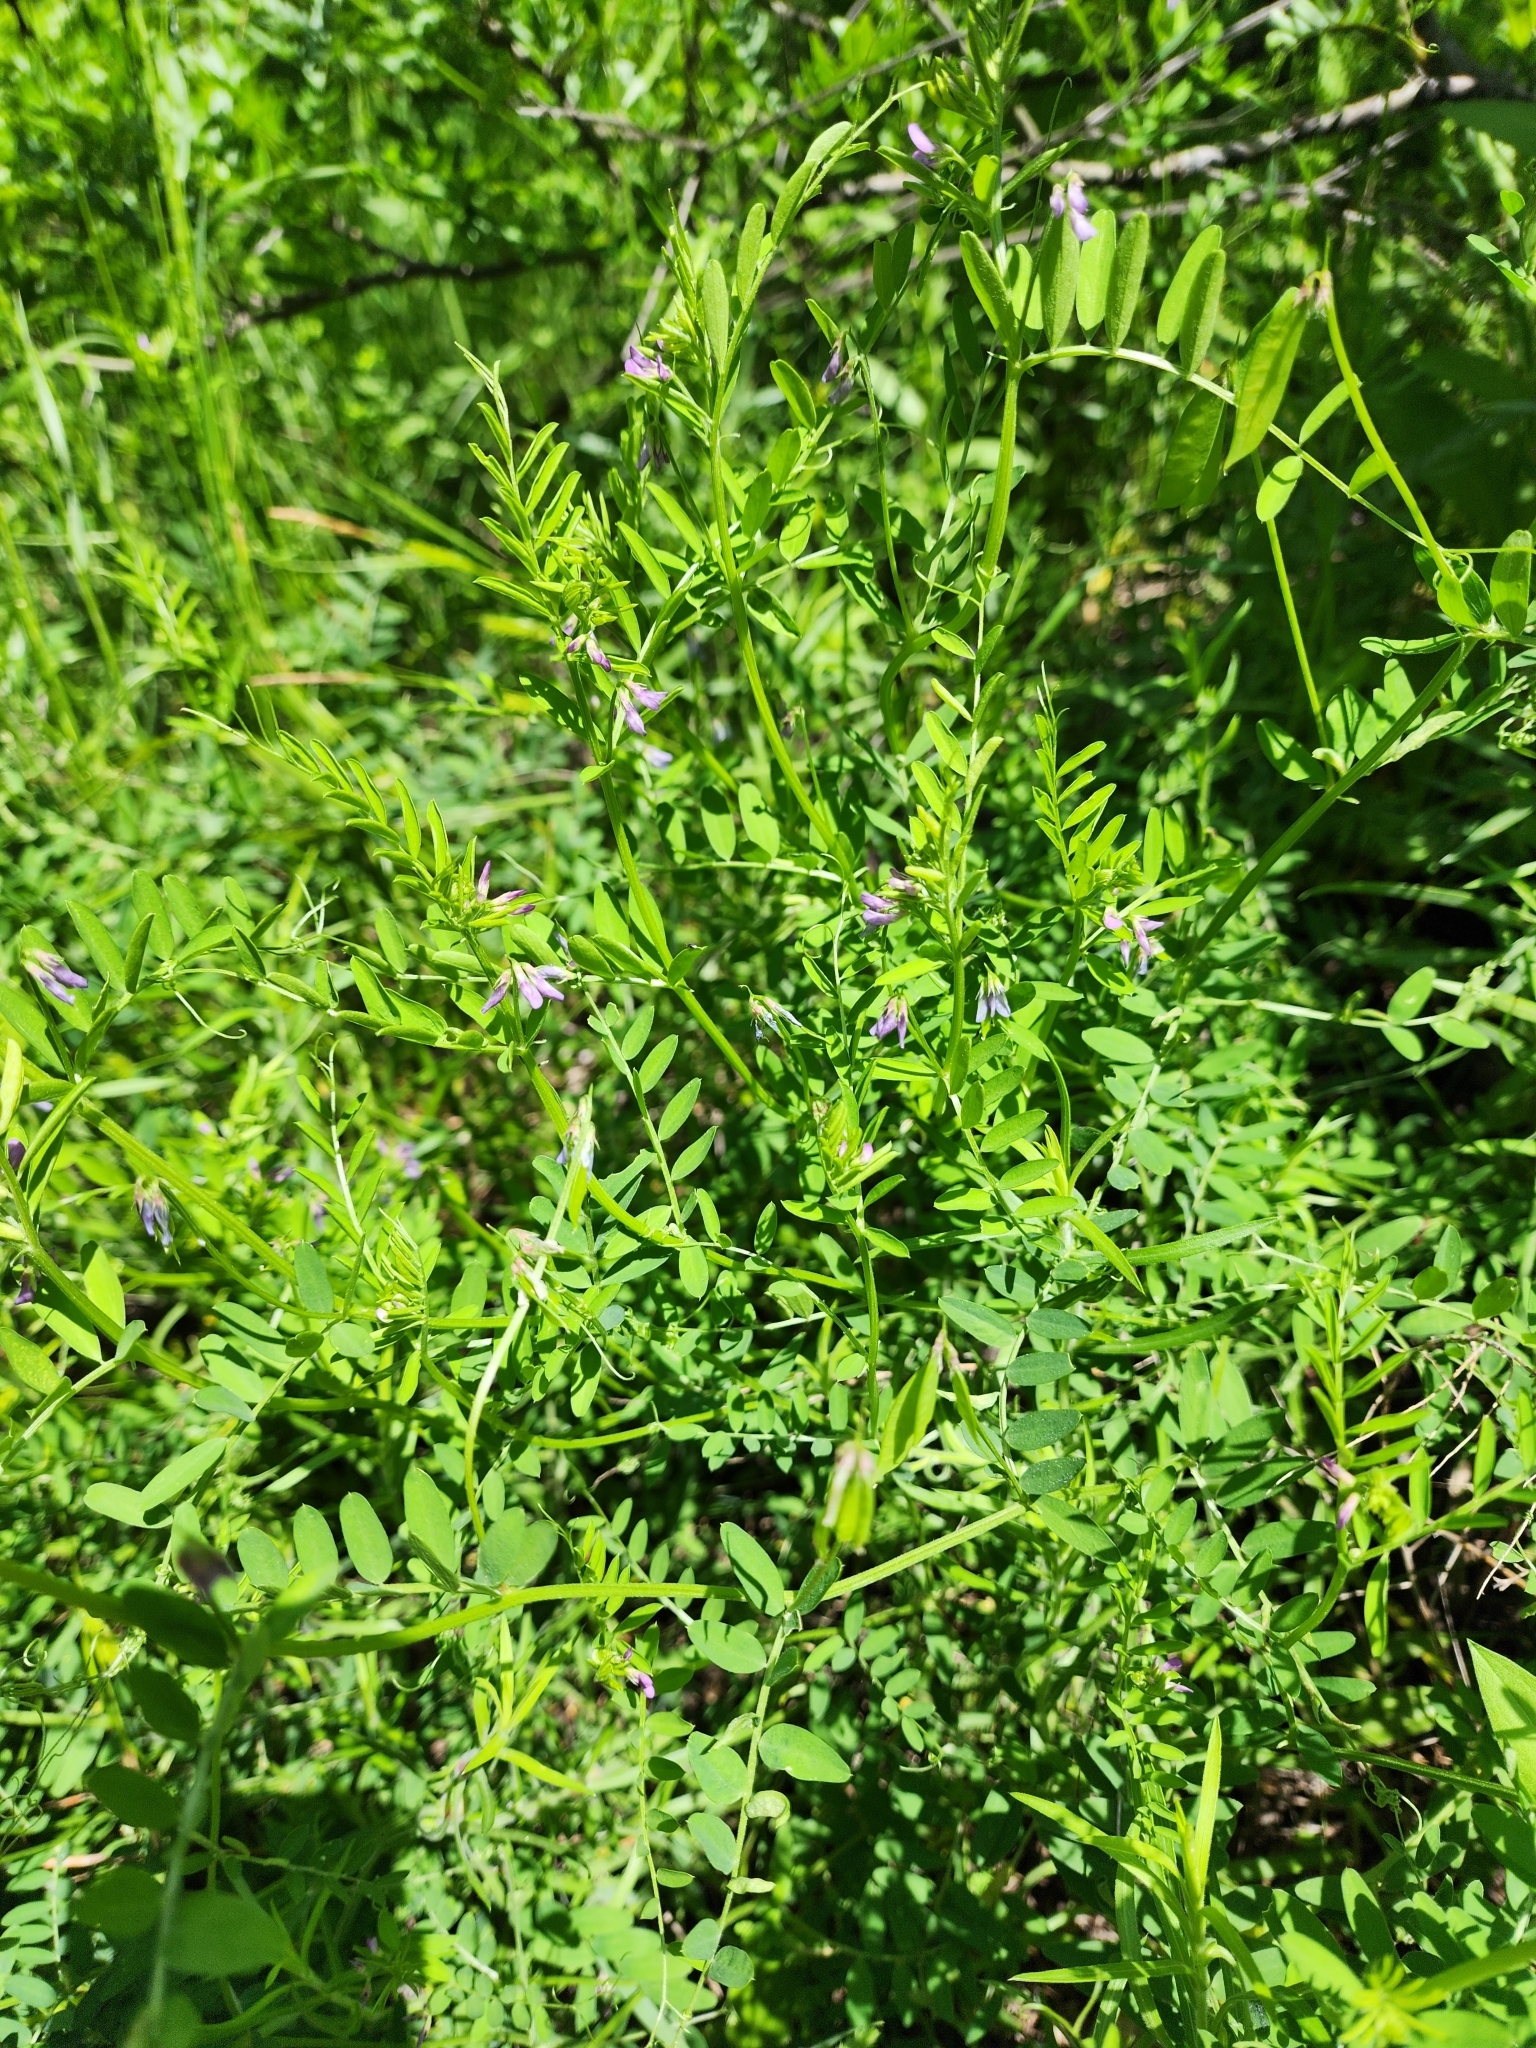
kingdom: Plantae
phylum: Tracheophyta
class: Magnoliopsida
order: Fabales
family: Fabaceae
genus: Vicia
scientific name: Vicia ludoviciana
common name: Louisiana vetch
